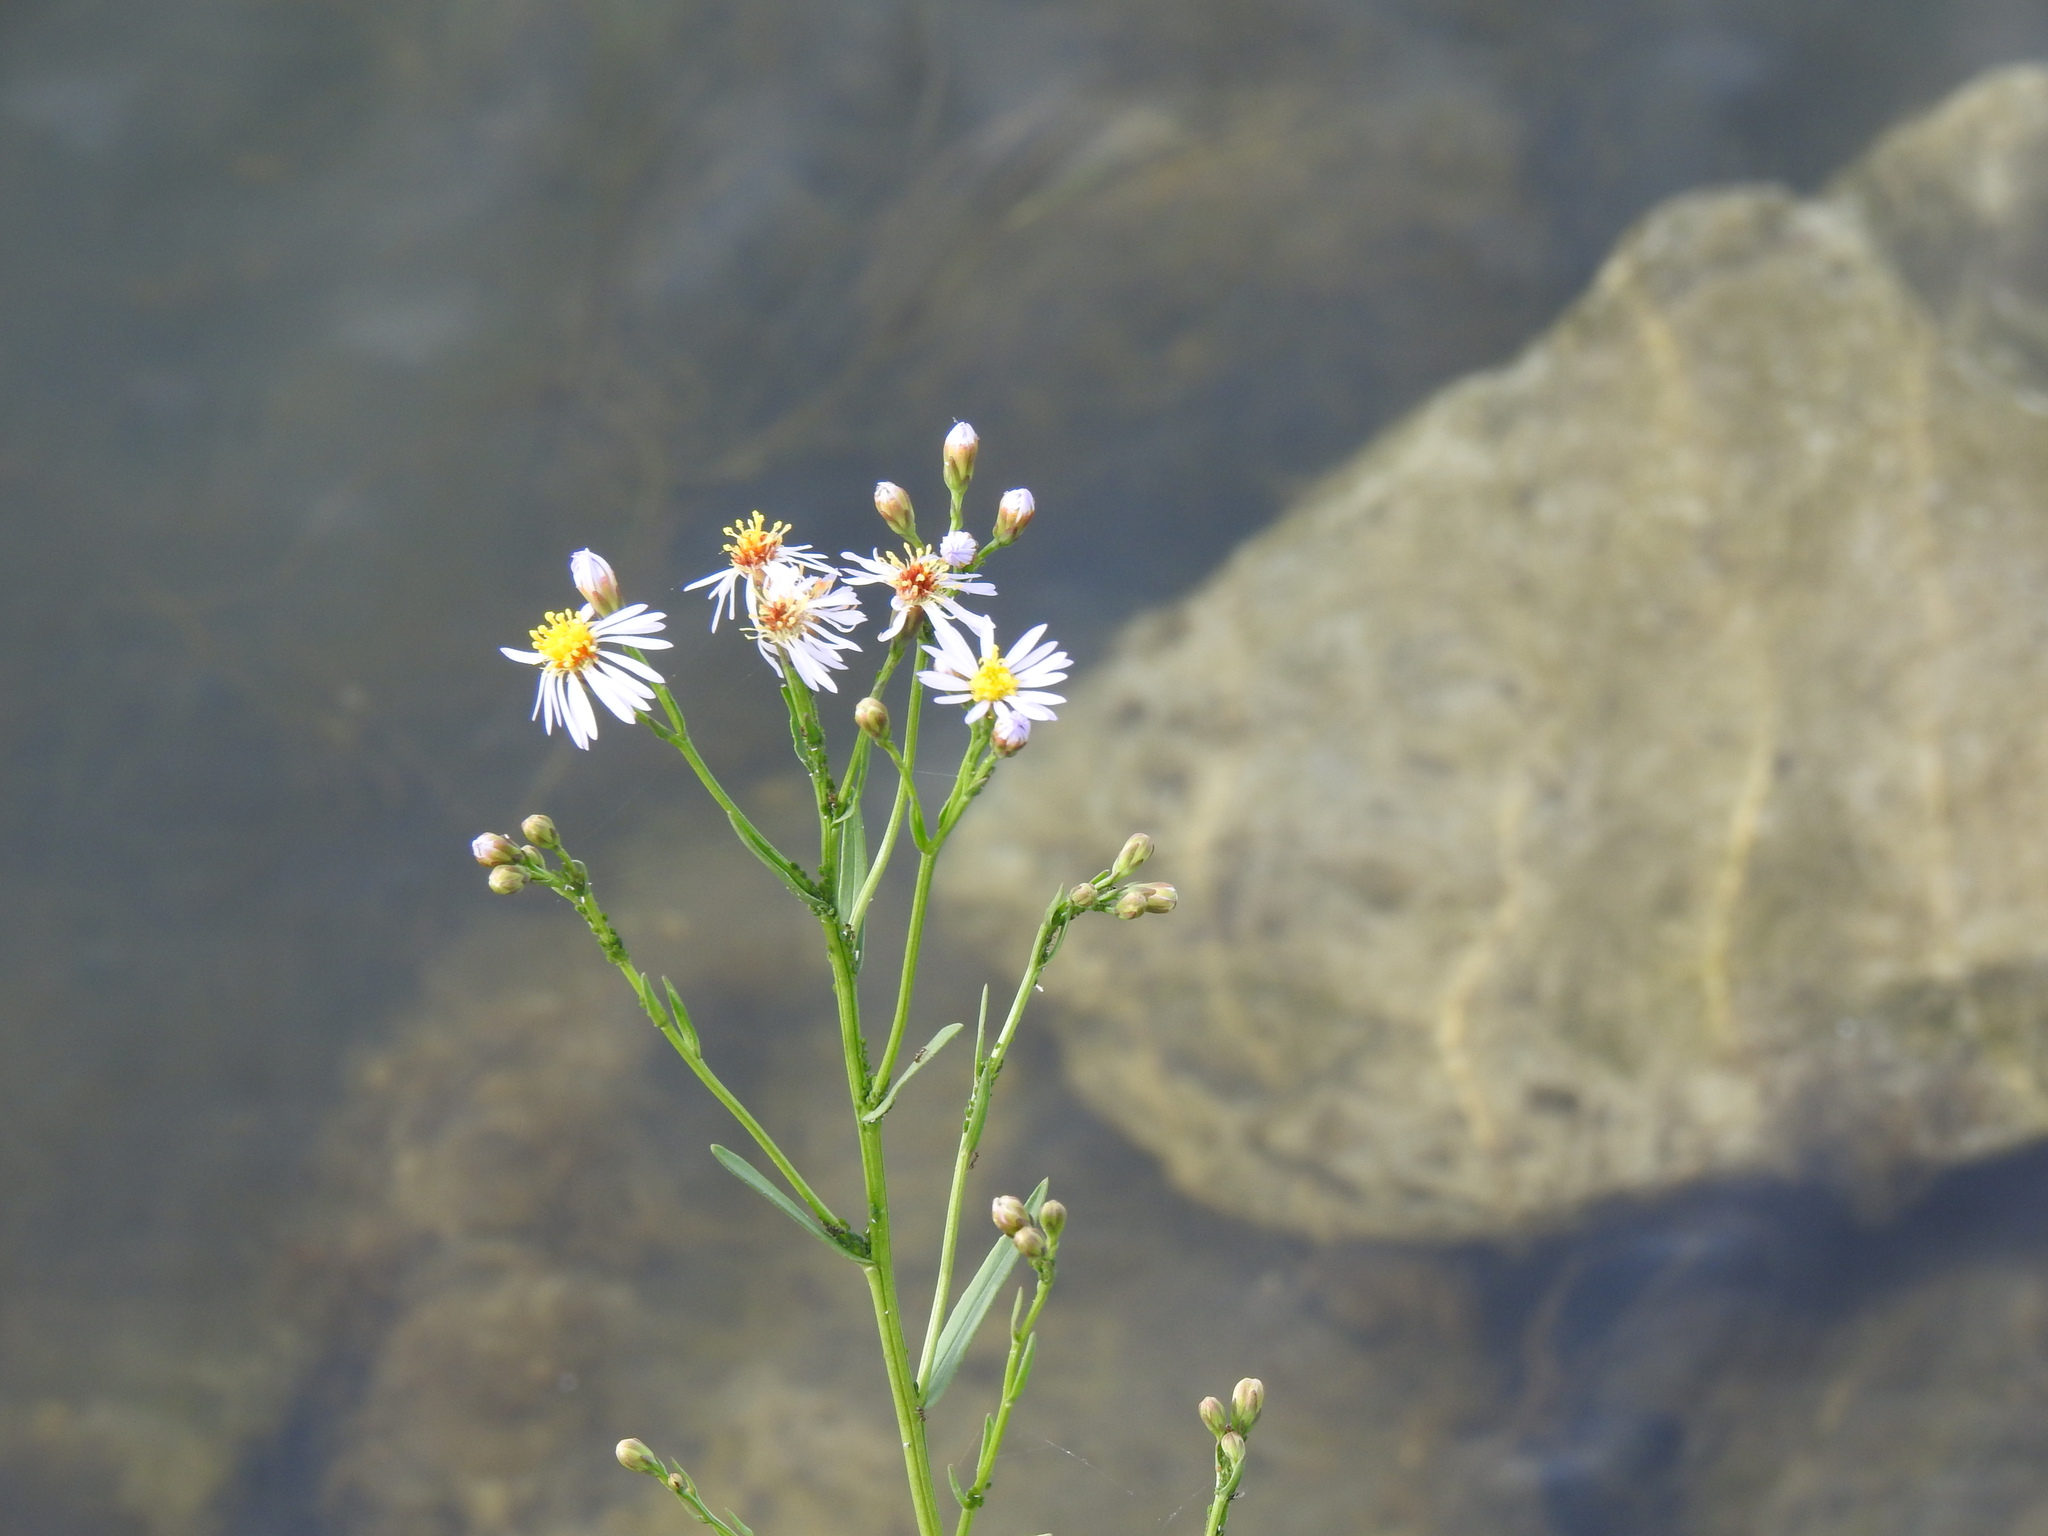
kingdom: Plantae
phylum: Tracheophyta
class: Magnoliopsida
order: Asterales
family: Asteraceae
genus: Tripolium
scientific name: Tripolium pannonicum
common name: Sea aster
